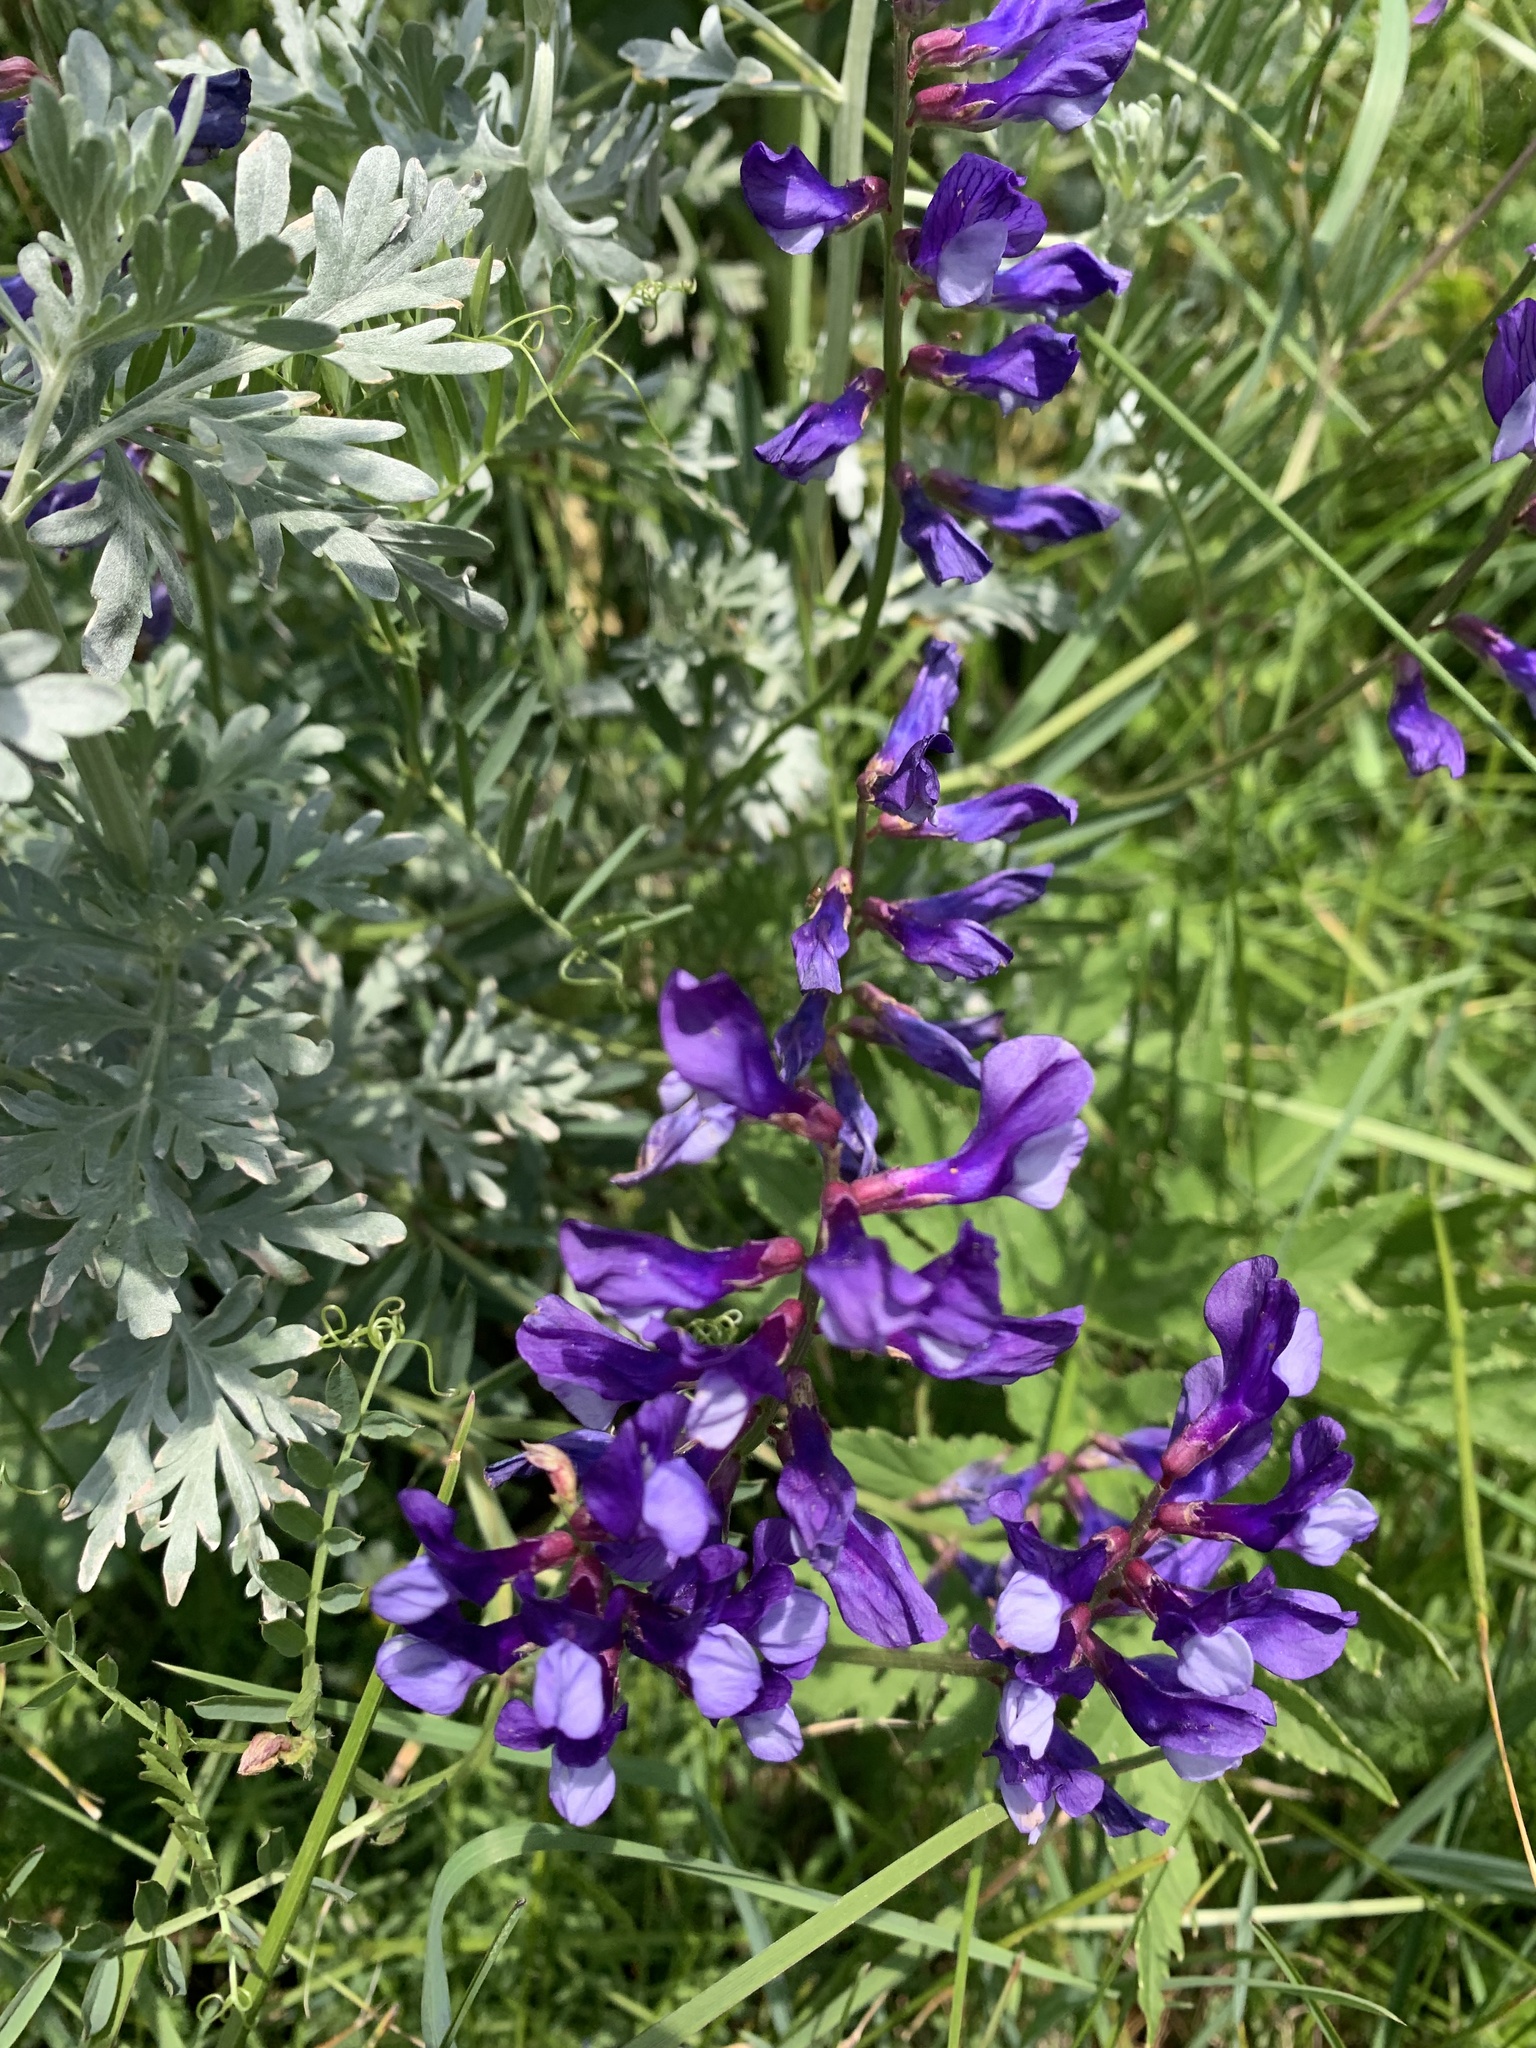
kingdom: Plantae
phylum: Tracheophyta
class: Magnoliopsida
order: Fabales
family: Fabaceae
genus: Vicia
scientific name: Vicia onobrychioides
